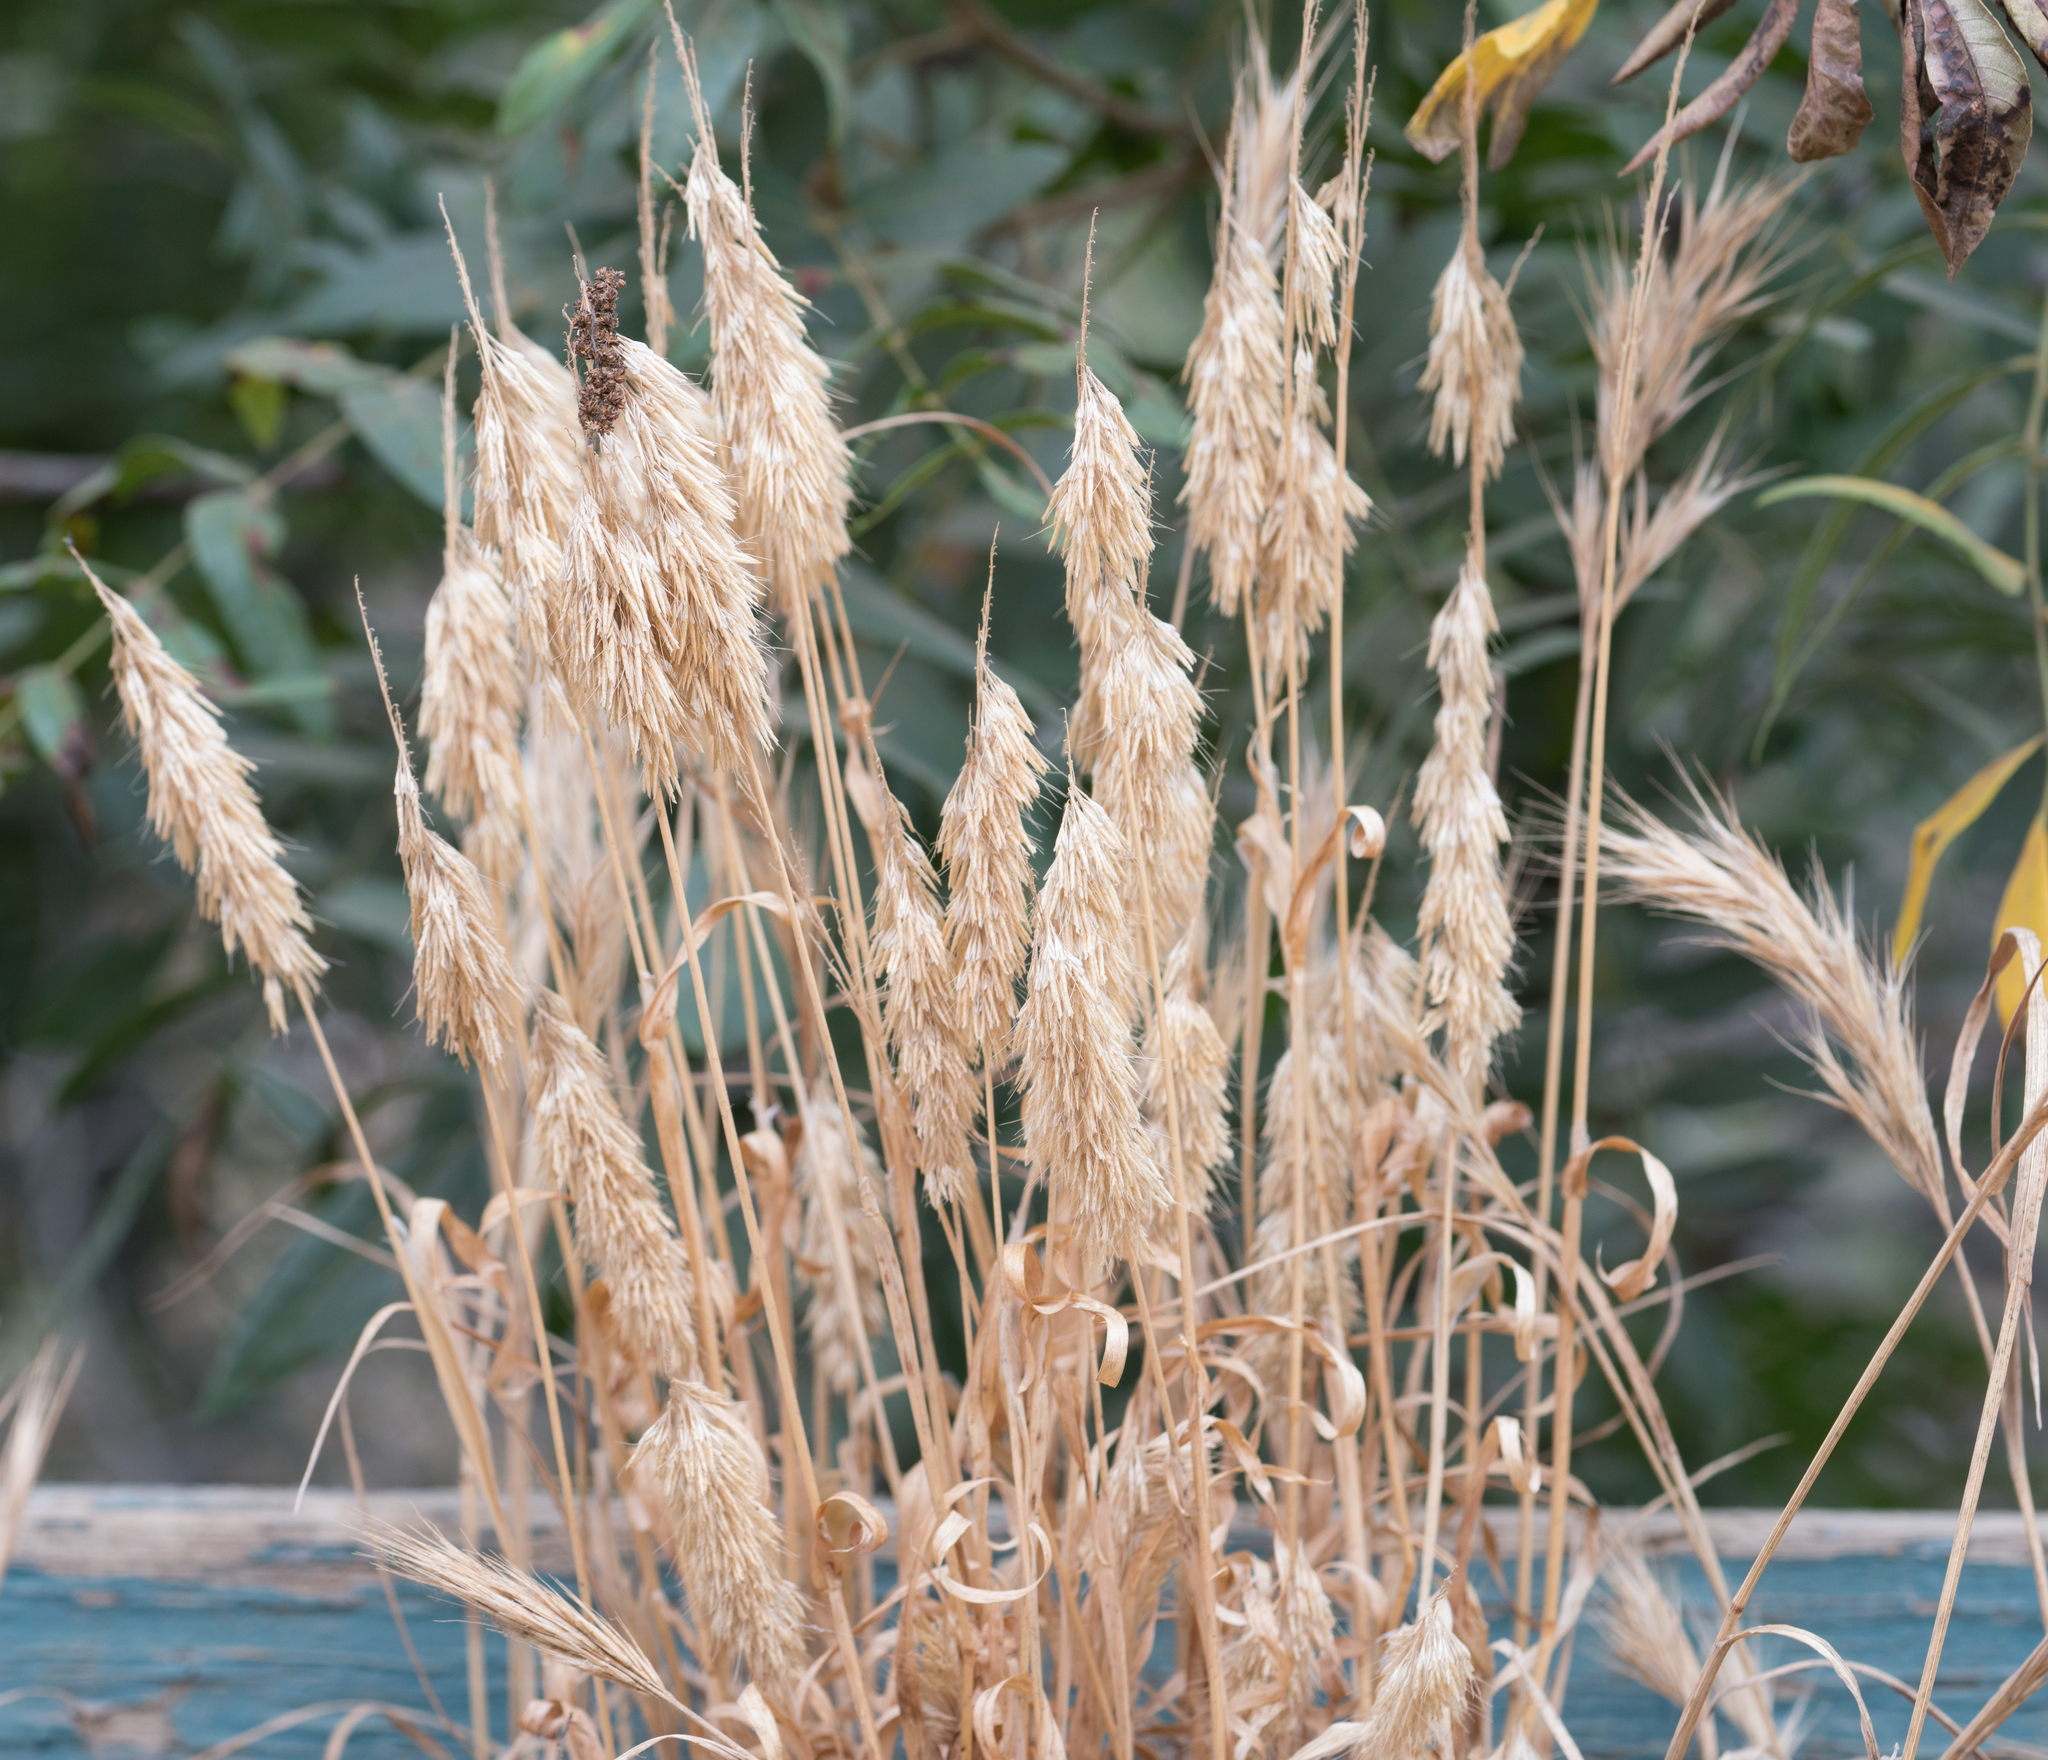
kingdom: Plantae
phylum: Tracheophyta
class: Liliopsida
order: Poales
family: Poaceae
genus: Lamarckia
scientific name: Lamarckia aurea
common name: Golden dog's-tail
